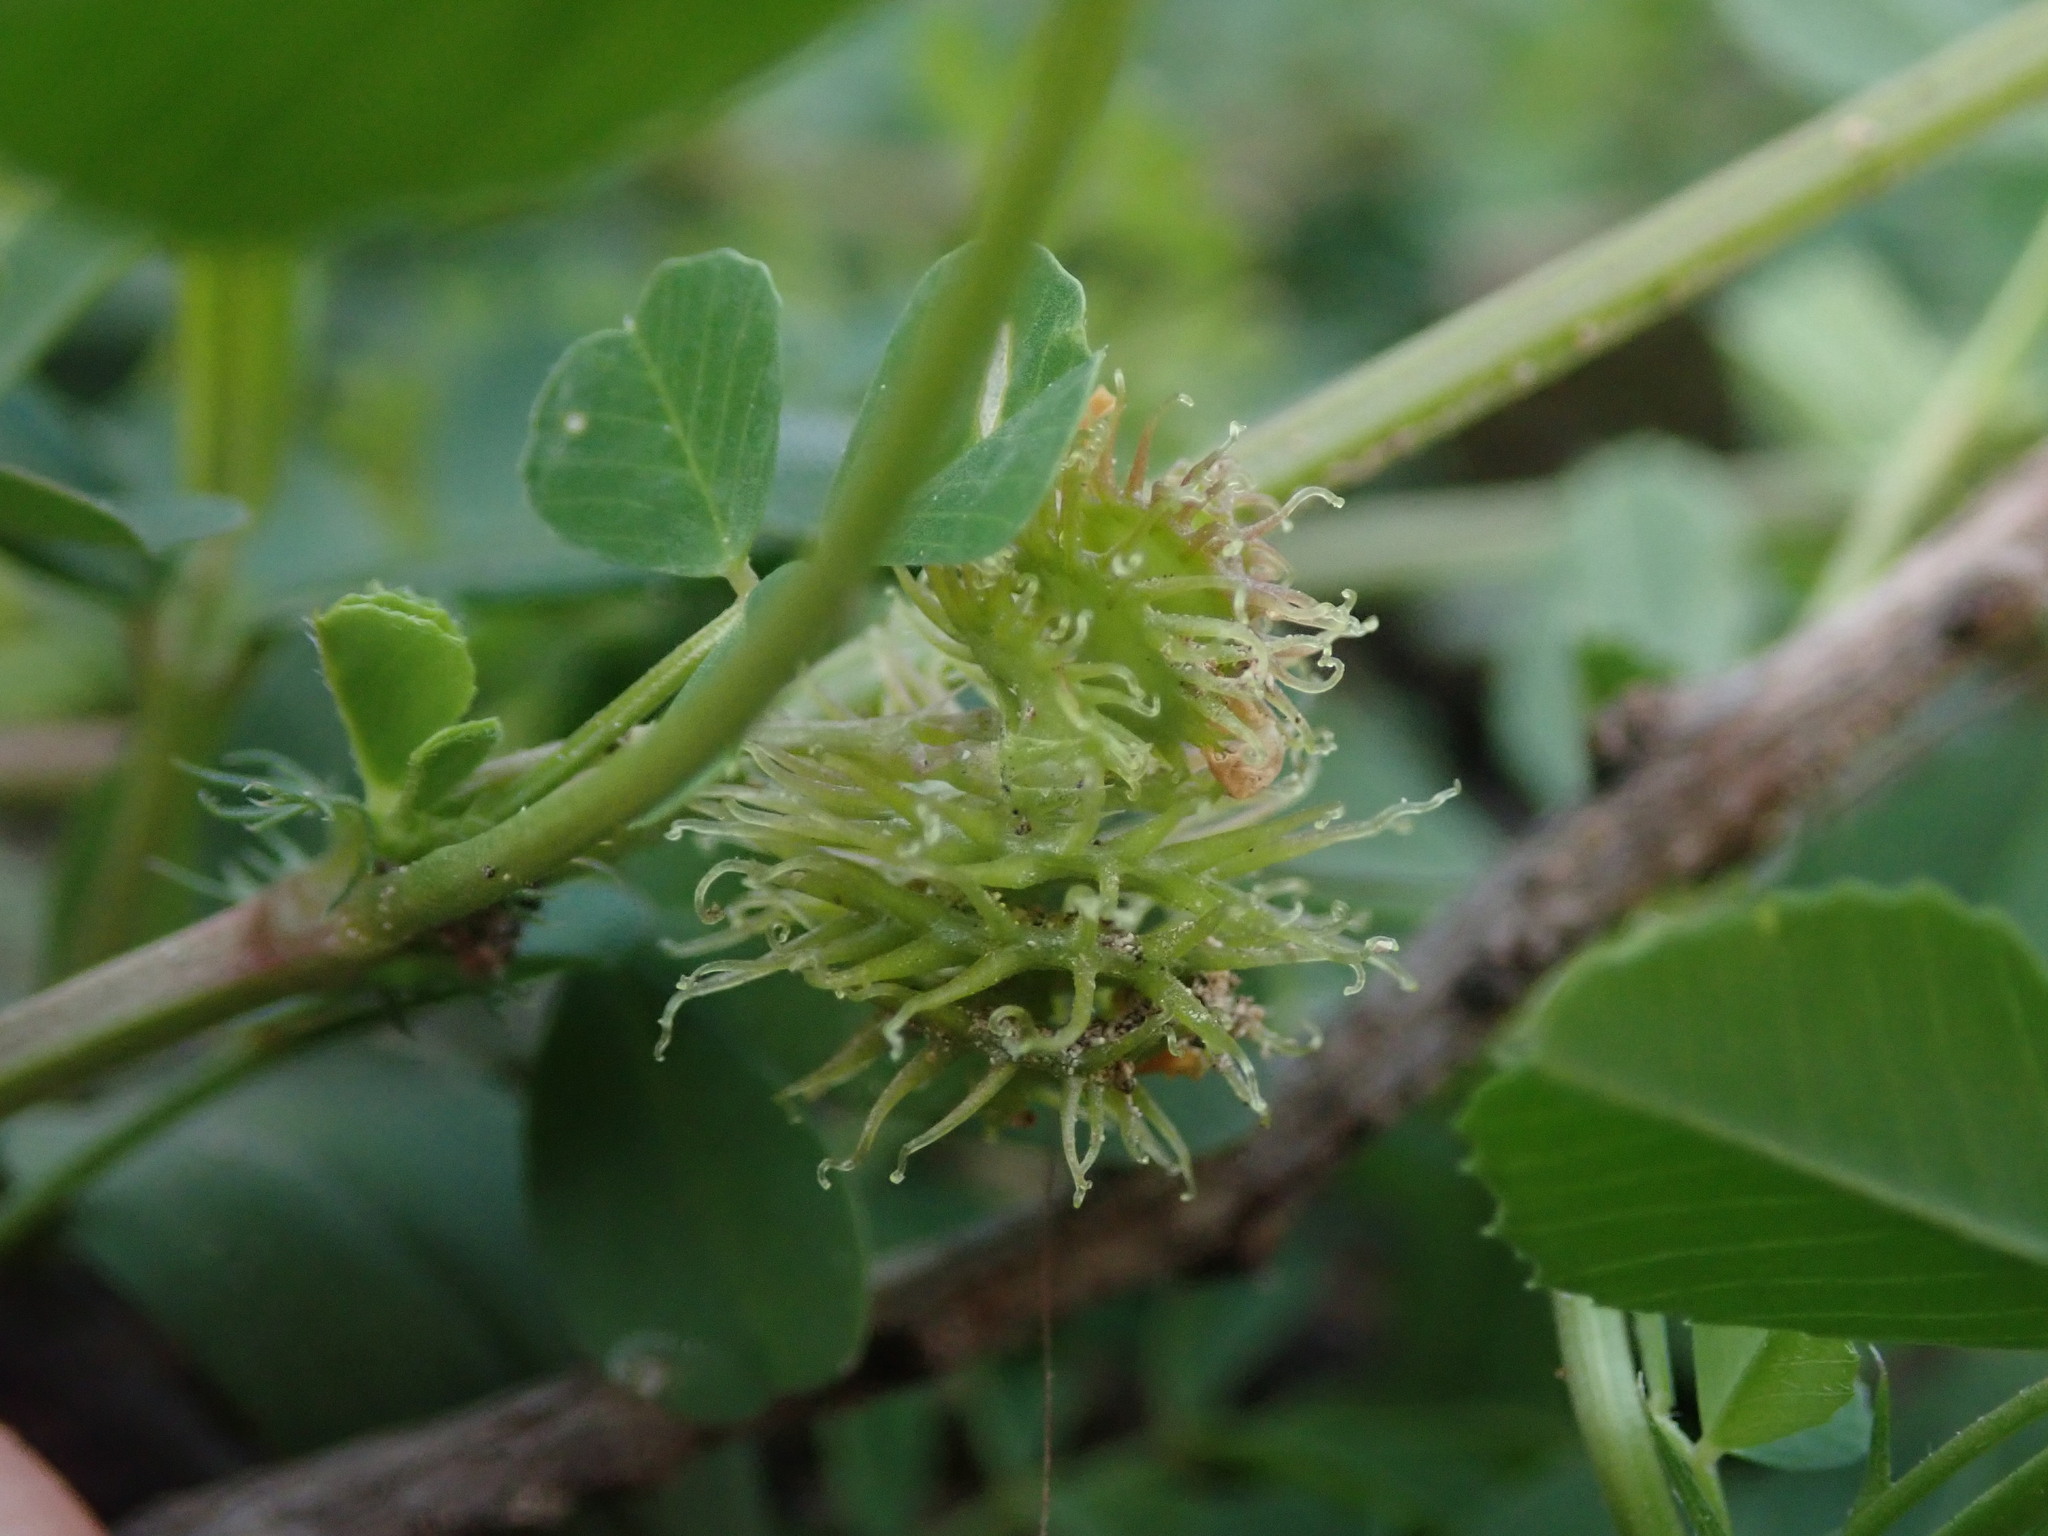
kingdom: Plantae
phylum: Tracheophyta
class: Magnoliopsida
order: Fabales
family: Fabaceae
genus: Medicago
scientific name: Medicago polymorpha
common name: Burclover
